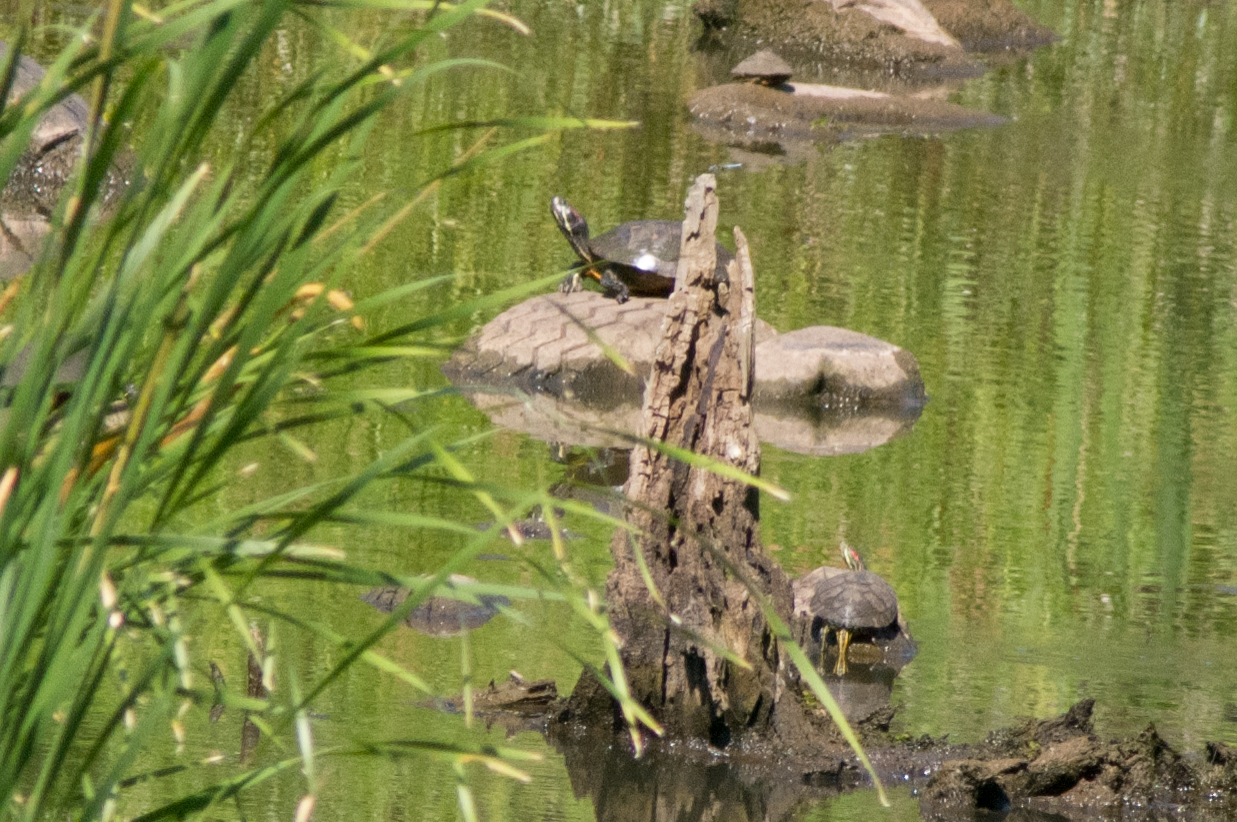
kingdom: Animalia
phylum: Chordata
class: Testudines
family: Emydidae
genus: Trachemys
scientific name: Trachemys scripta
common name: Slider
